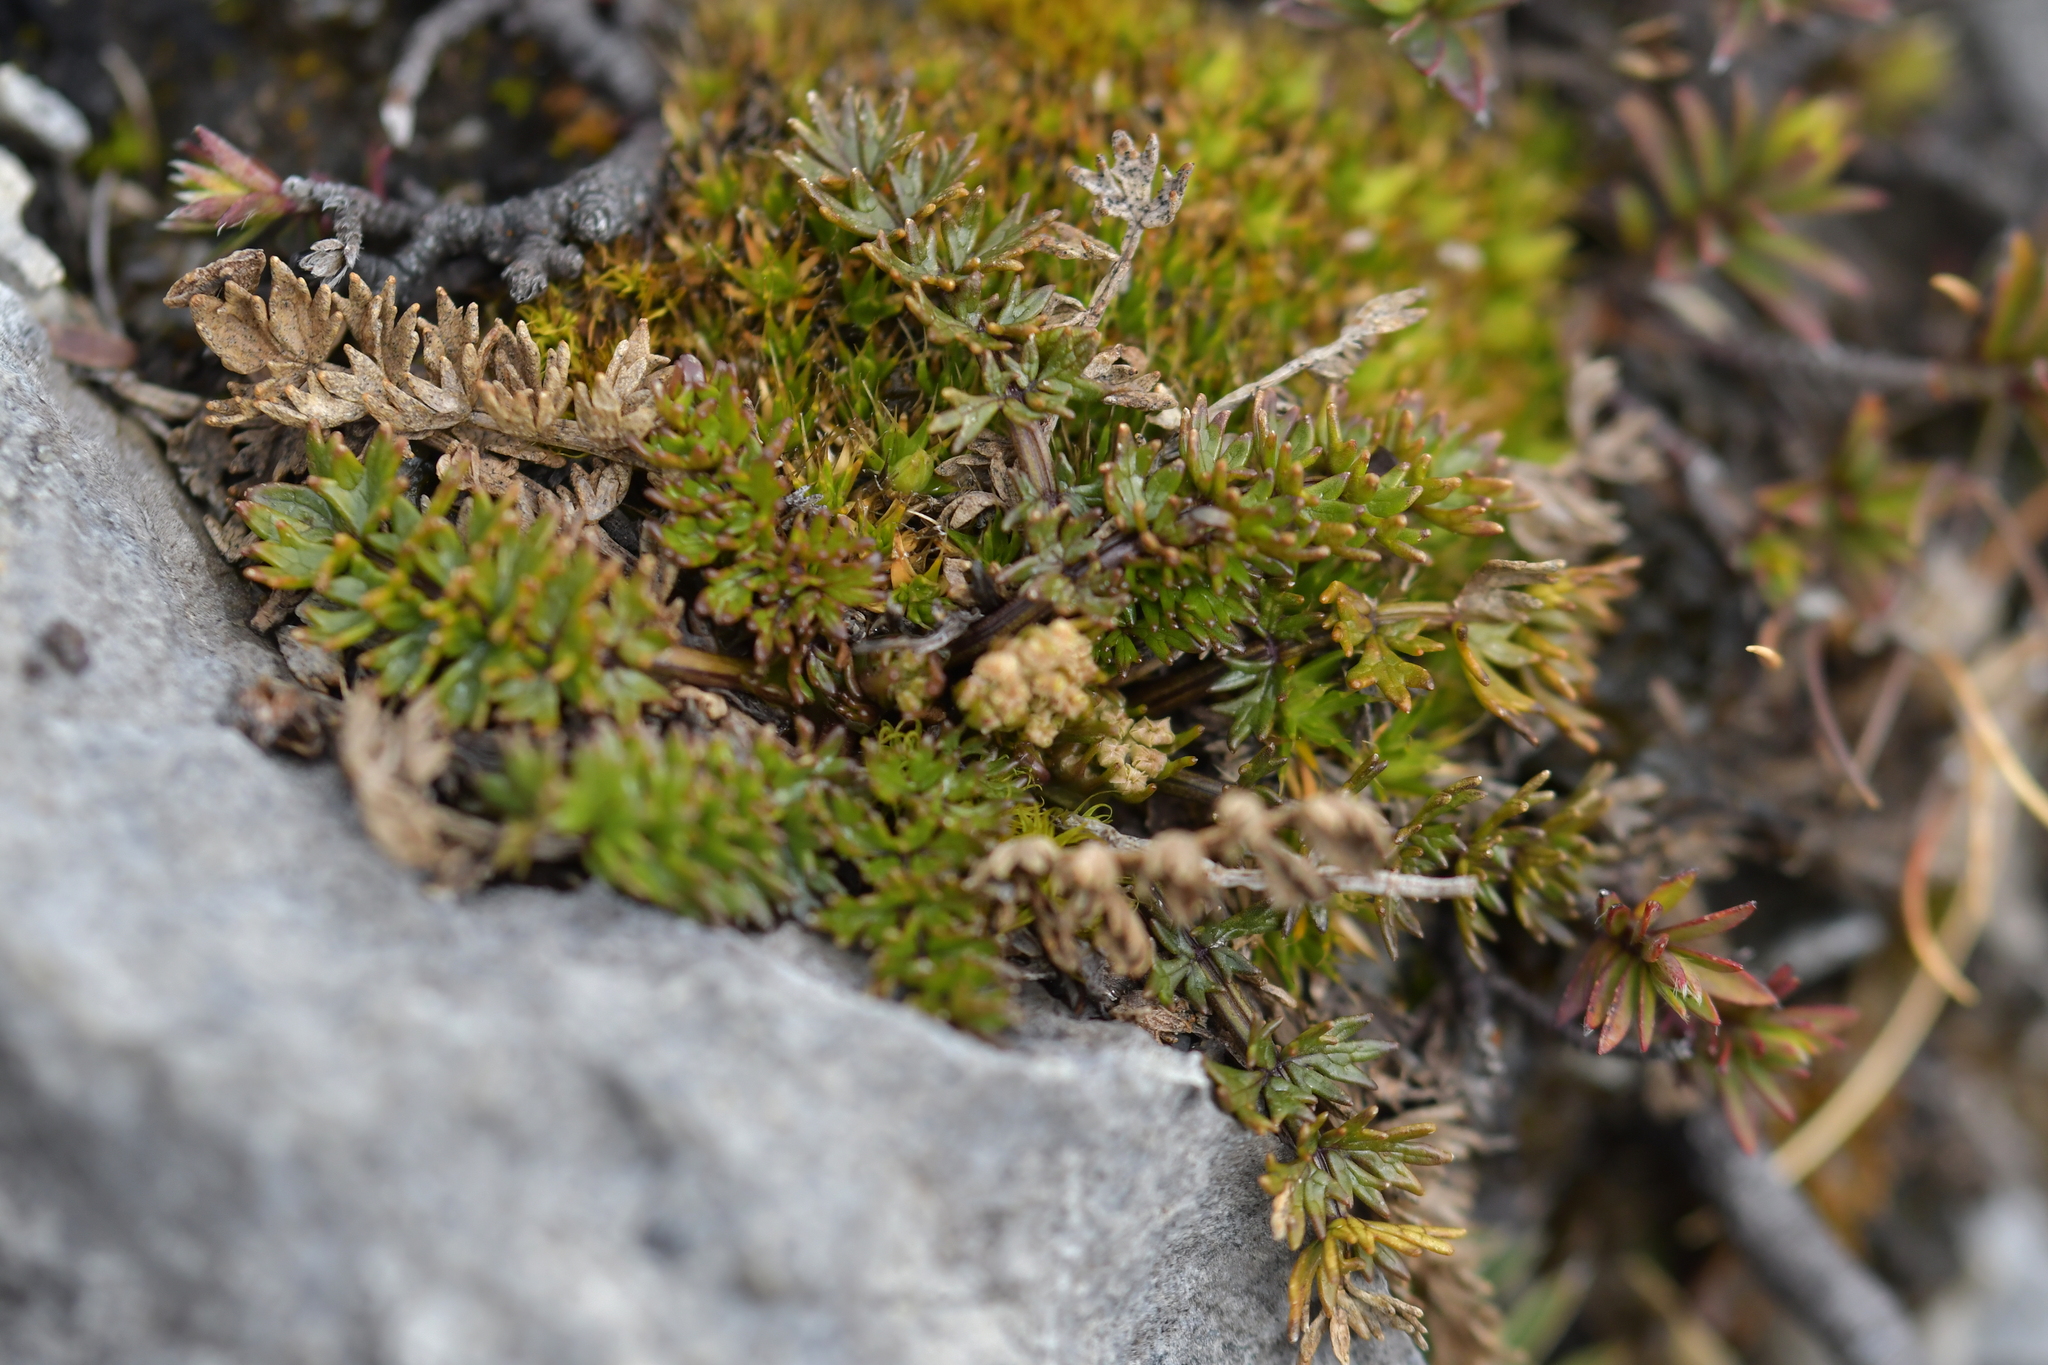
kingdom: Plantae
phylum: Tracheophyta
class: Magnoliopsida
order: Apiales
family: Apiaceae
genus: Gingidia
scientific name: Gingidia decipiens
